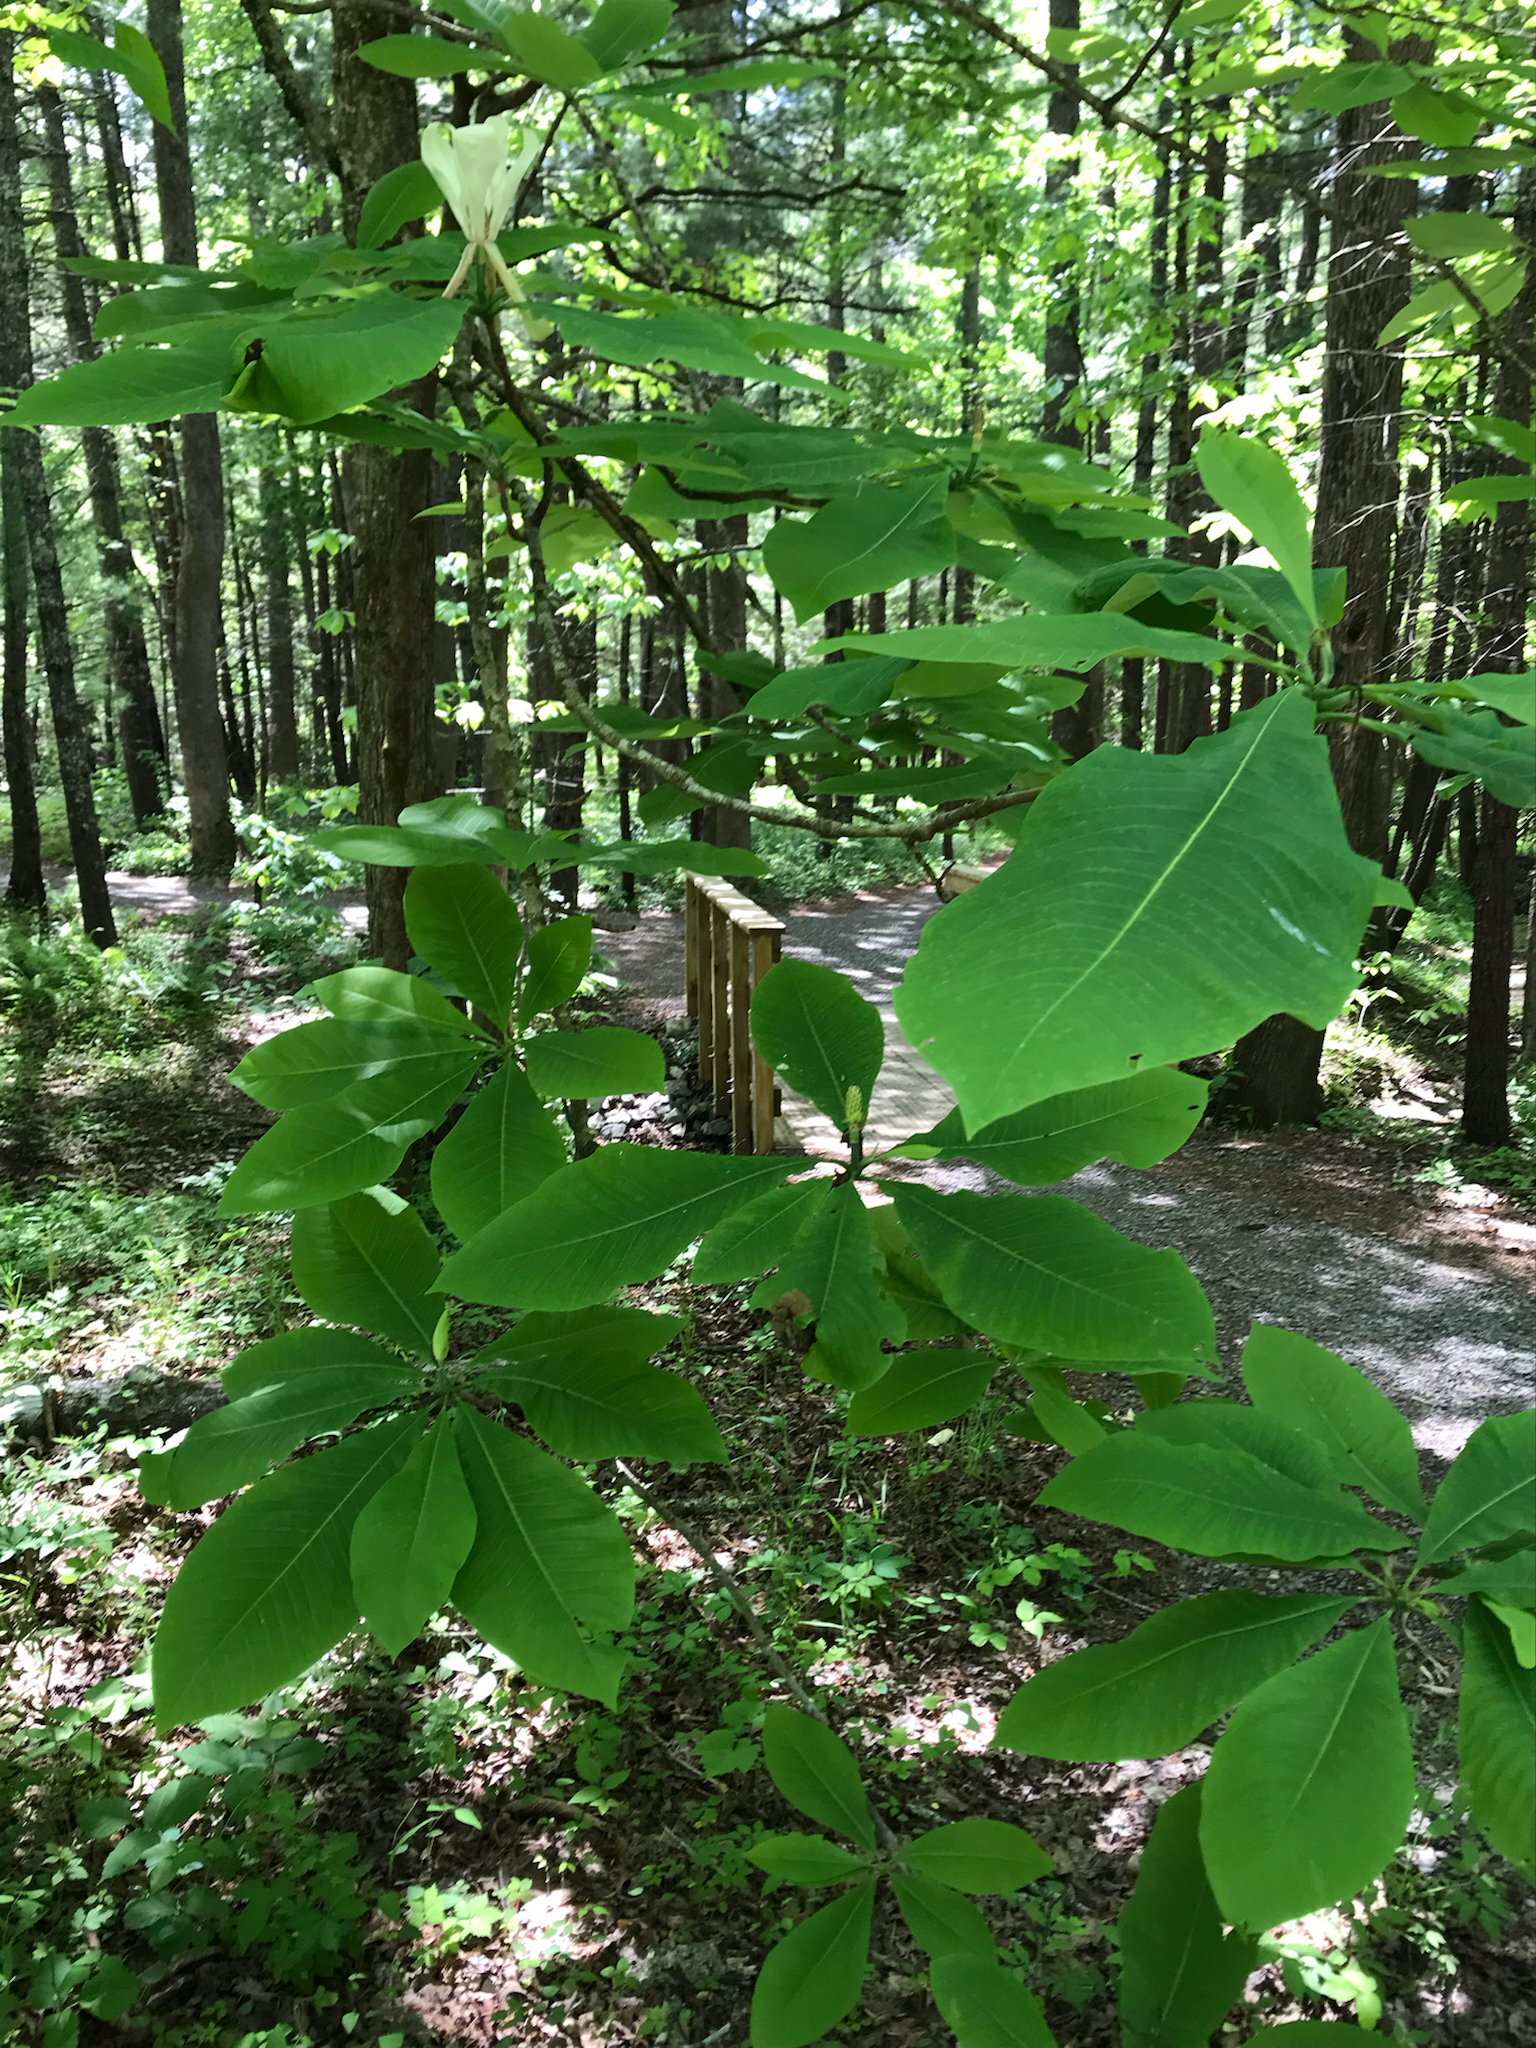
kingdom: Plantae
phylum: Tracheophyta
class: Magnoliopsida
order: Magnoliales
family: Magnoliaceae
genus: Magnolia
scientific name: Magnolia tripetala
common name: Umbrella magnolia
